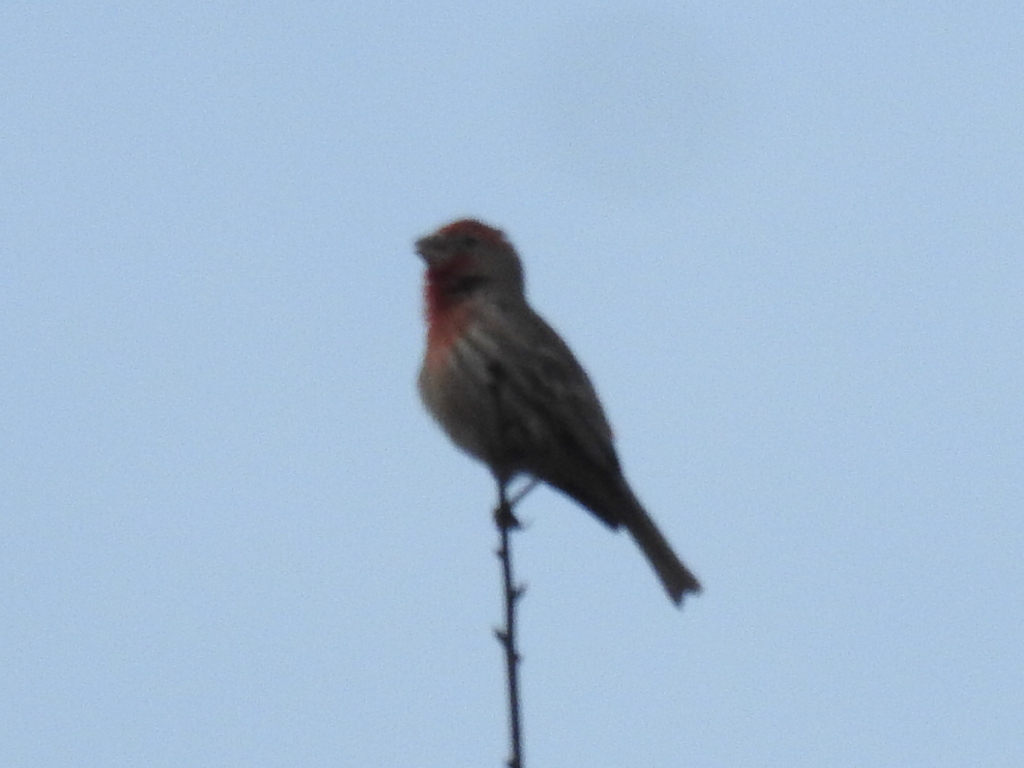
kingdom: Animalia
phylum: Chordata
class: Aves
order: Passeriformes
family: Fringillidae
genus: Haemorhous
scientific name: Haemorhous mexicanus
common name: House finch
